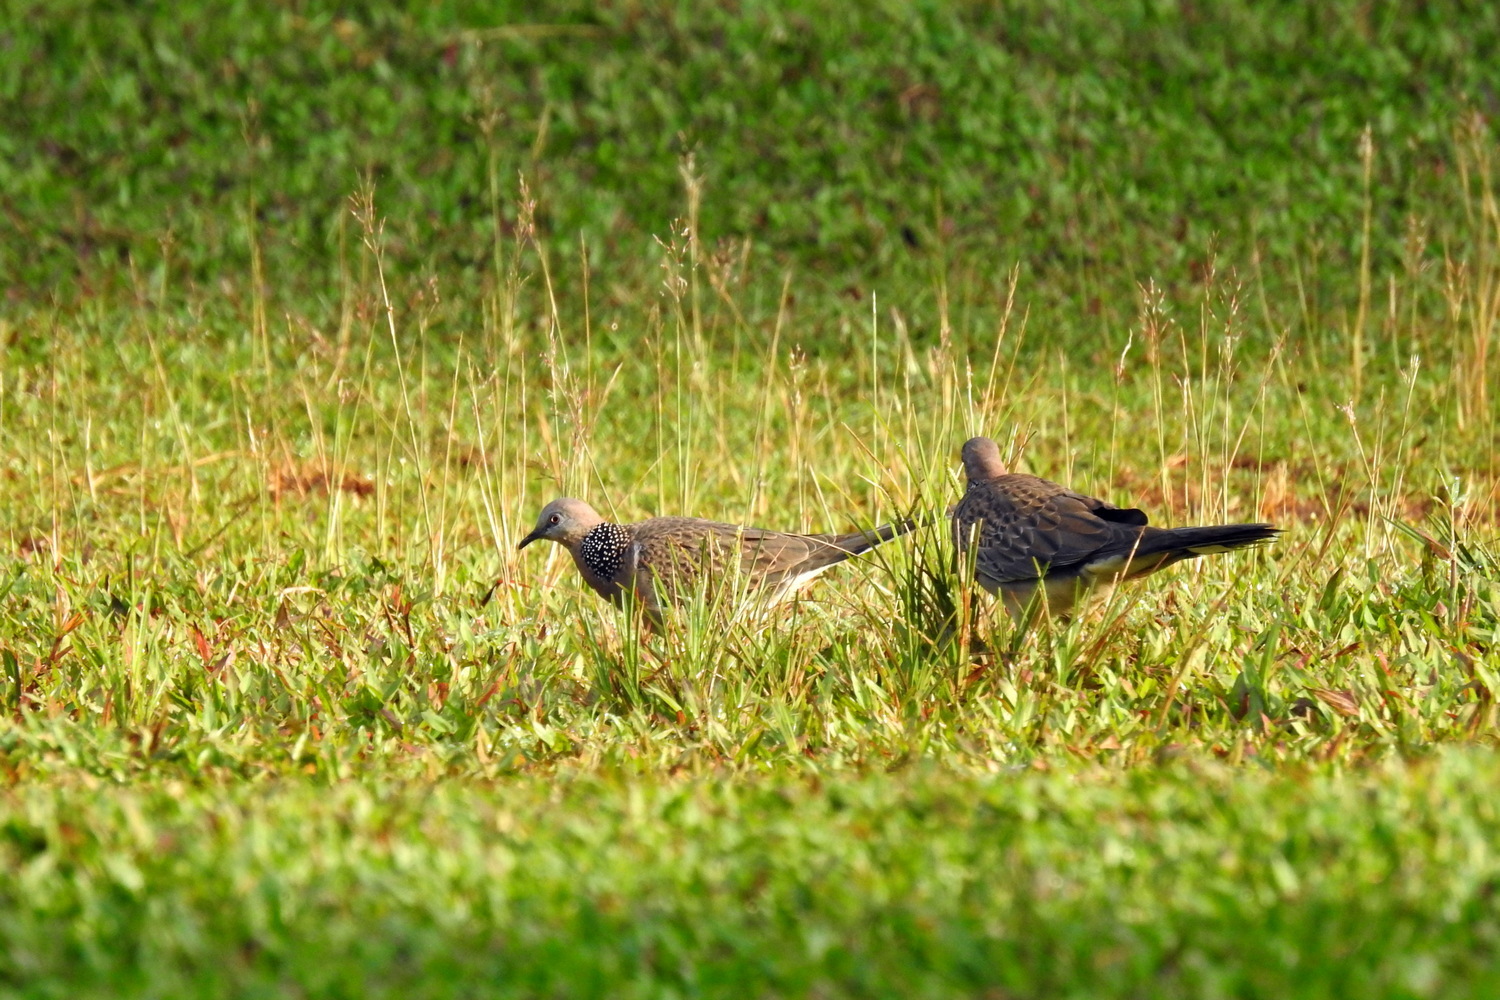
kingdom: Animalia
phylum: Chordata
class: Aves
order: Columbiformes
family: Columbidae
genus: Spilopelia
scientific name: Spilopelia chinensis
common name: Spotted dove
